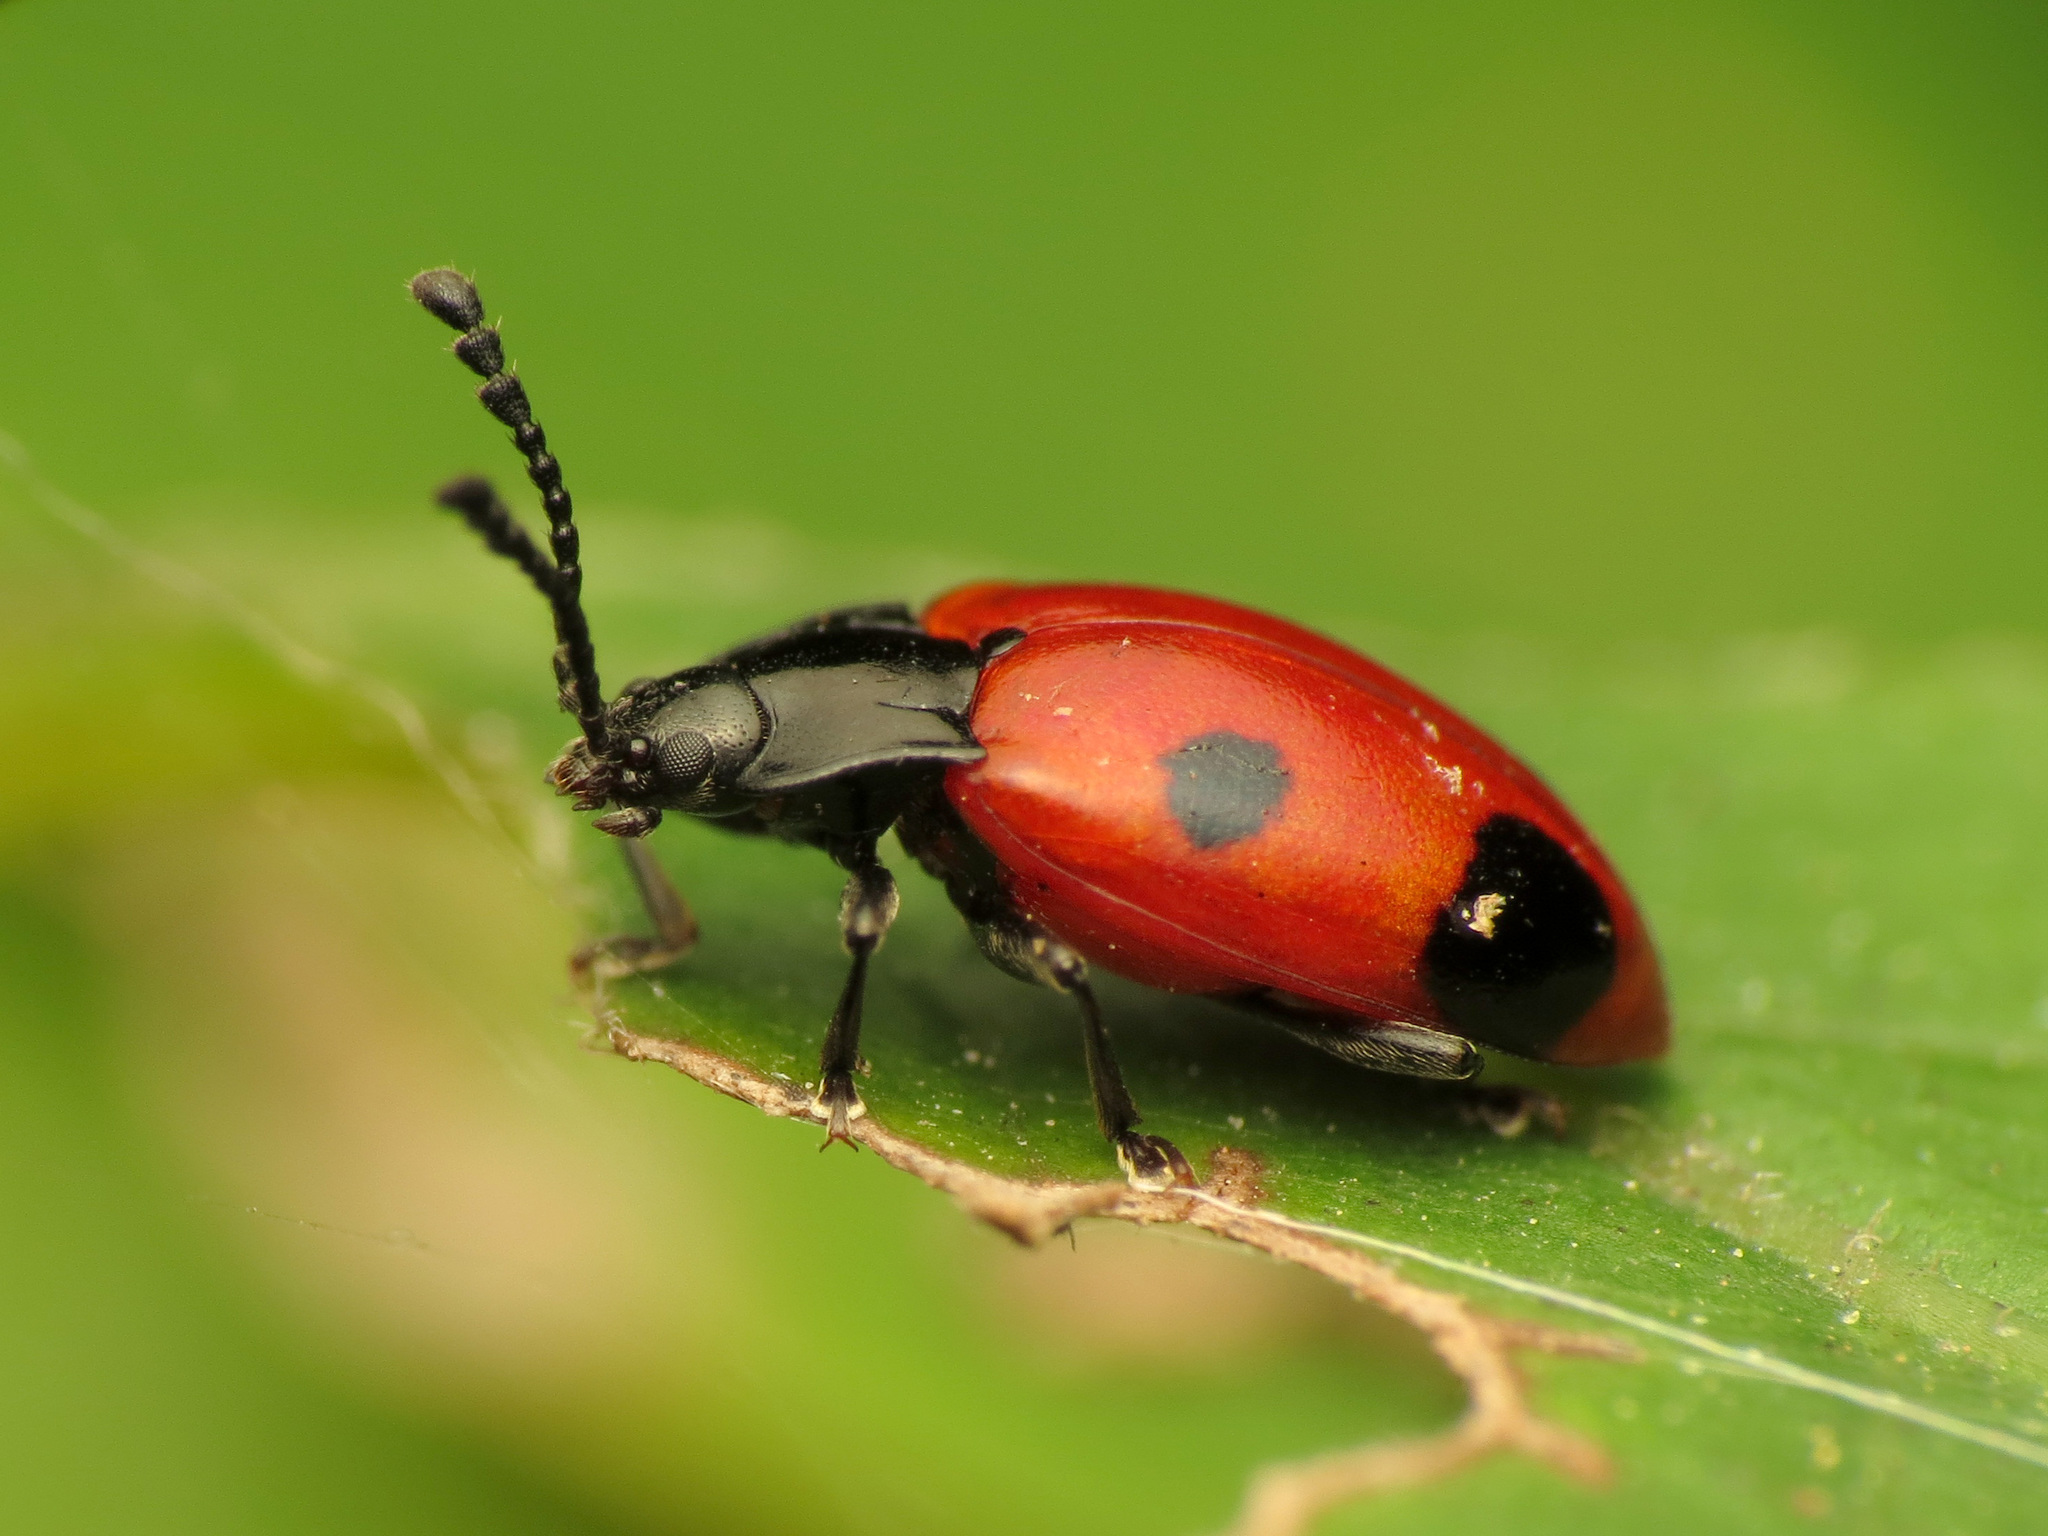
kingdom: Animalia
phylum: Arthropoda
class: Insecta
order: Coleoptera
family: Endomychidae
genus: Endomychus
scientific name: Endomychus biguttatus
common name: Handsome fungus beetle
